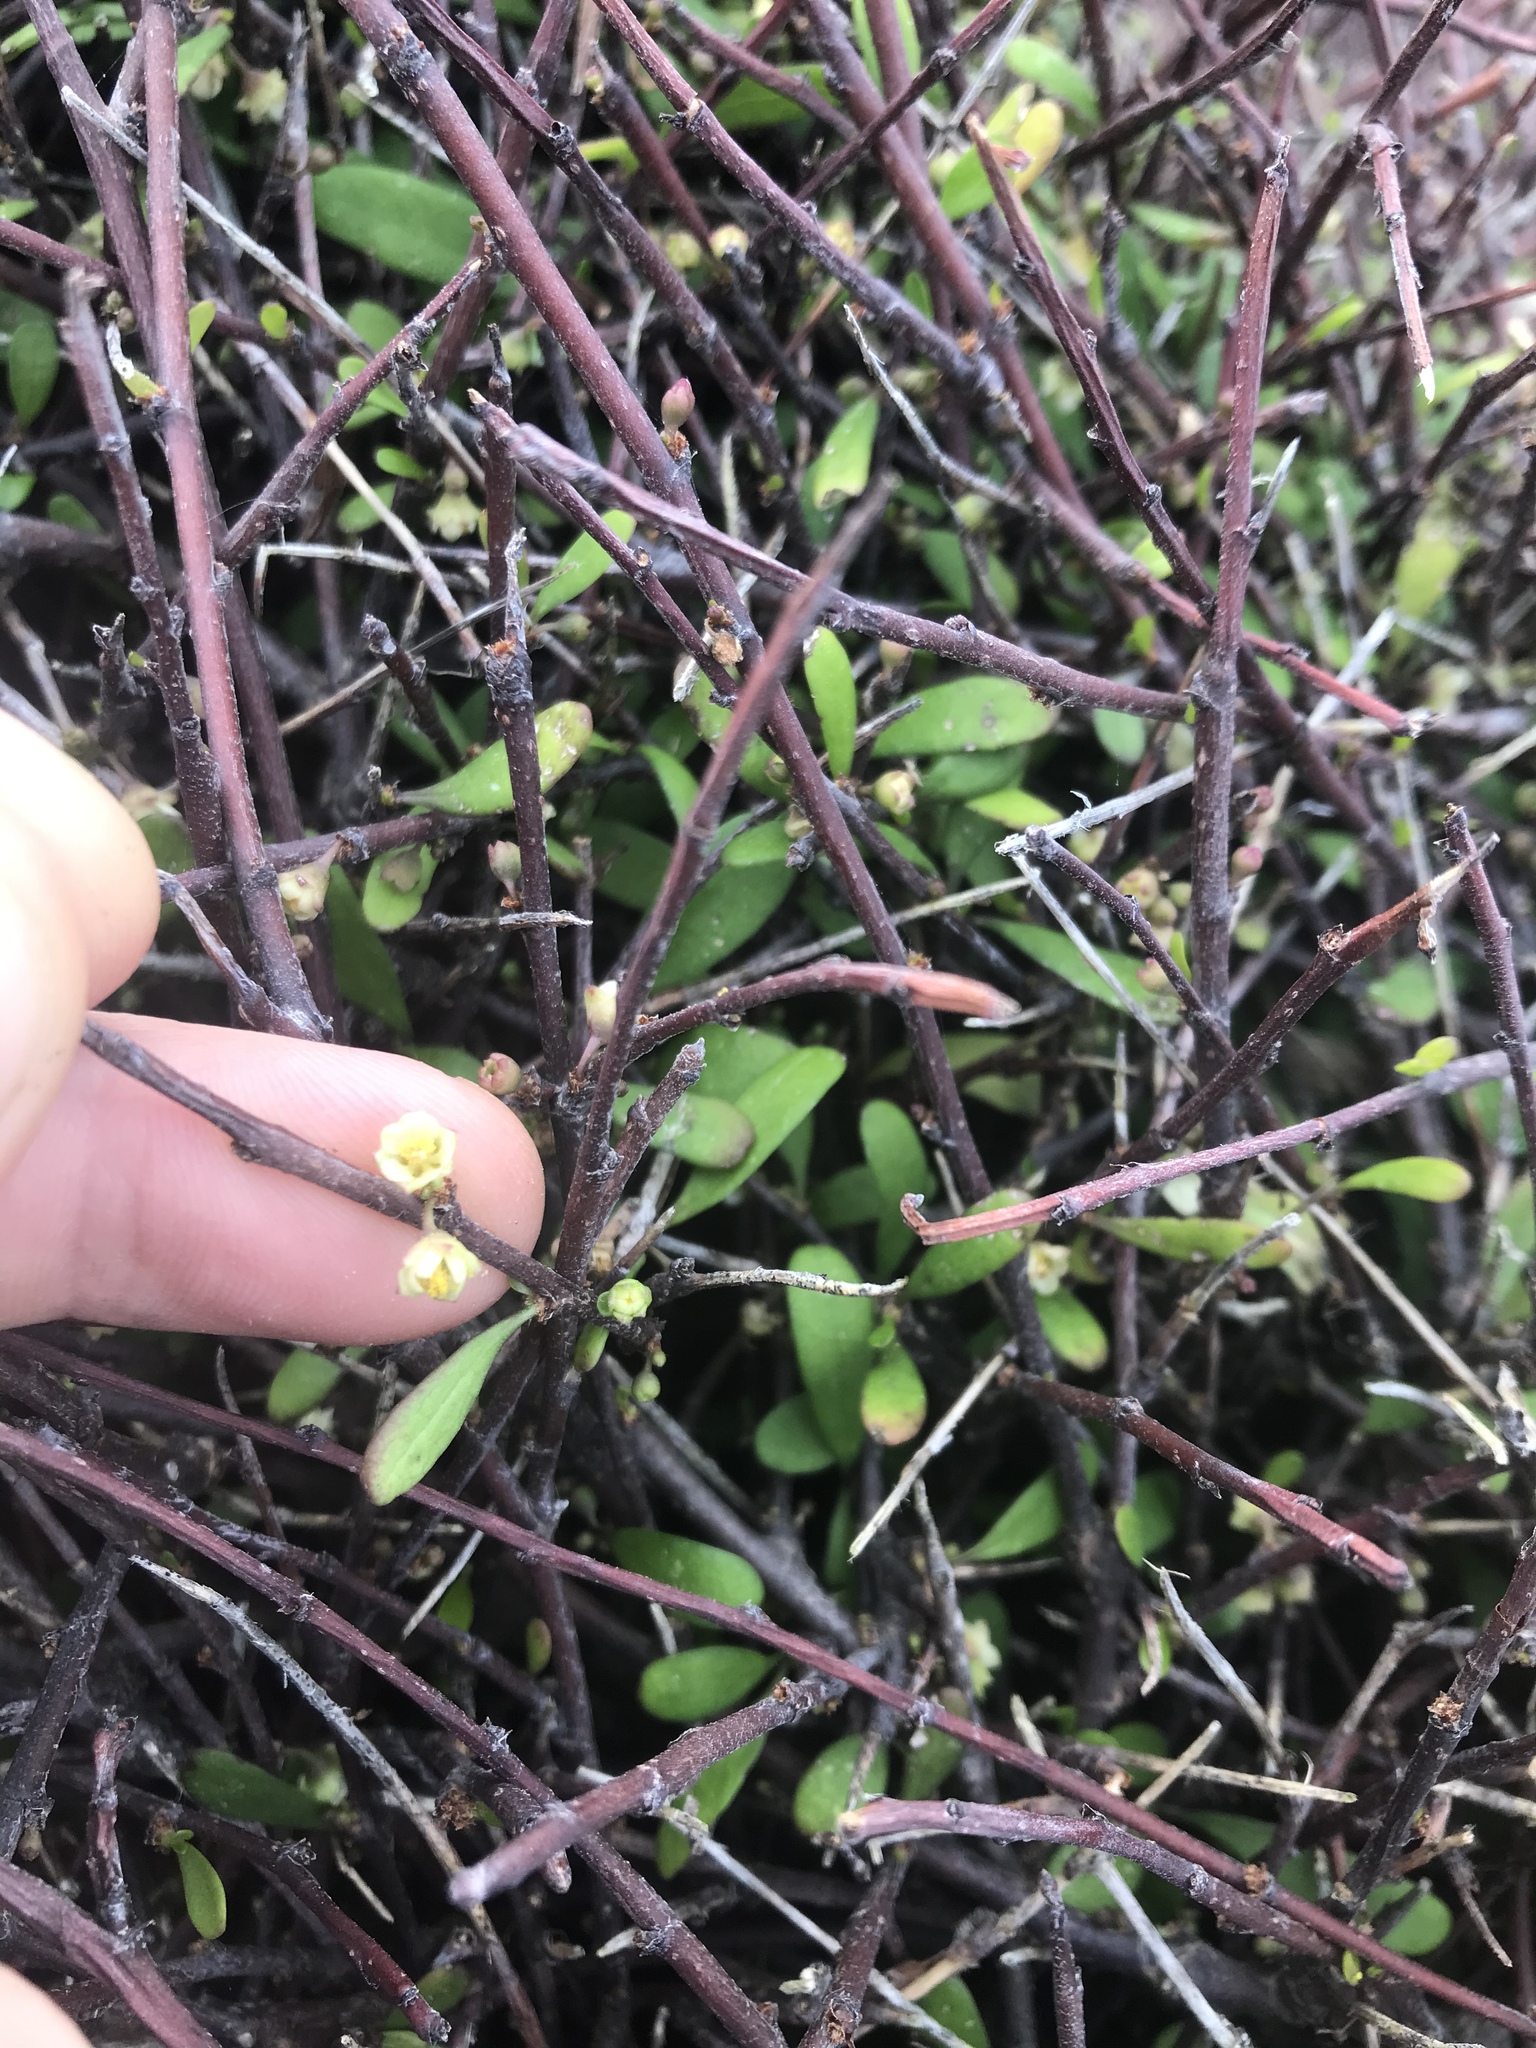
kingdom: Plantae
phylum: Tracheophyta
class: Magnoliopsida
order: Malvales
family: Malvaceae
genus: Plagianthus
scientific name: Plagianthus divaricatus
